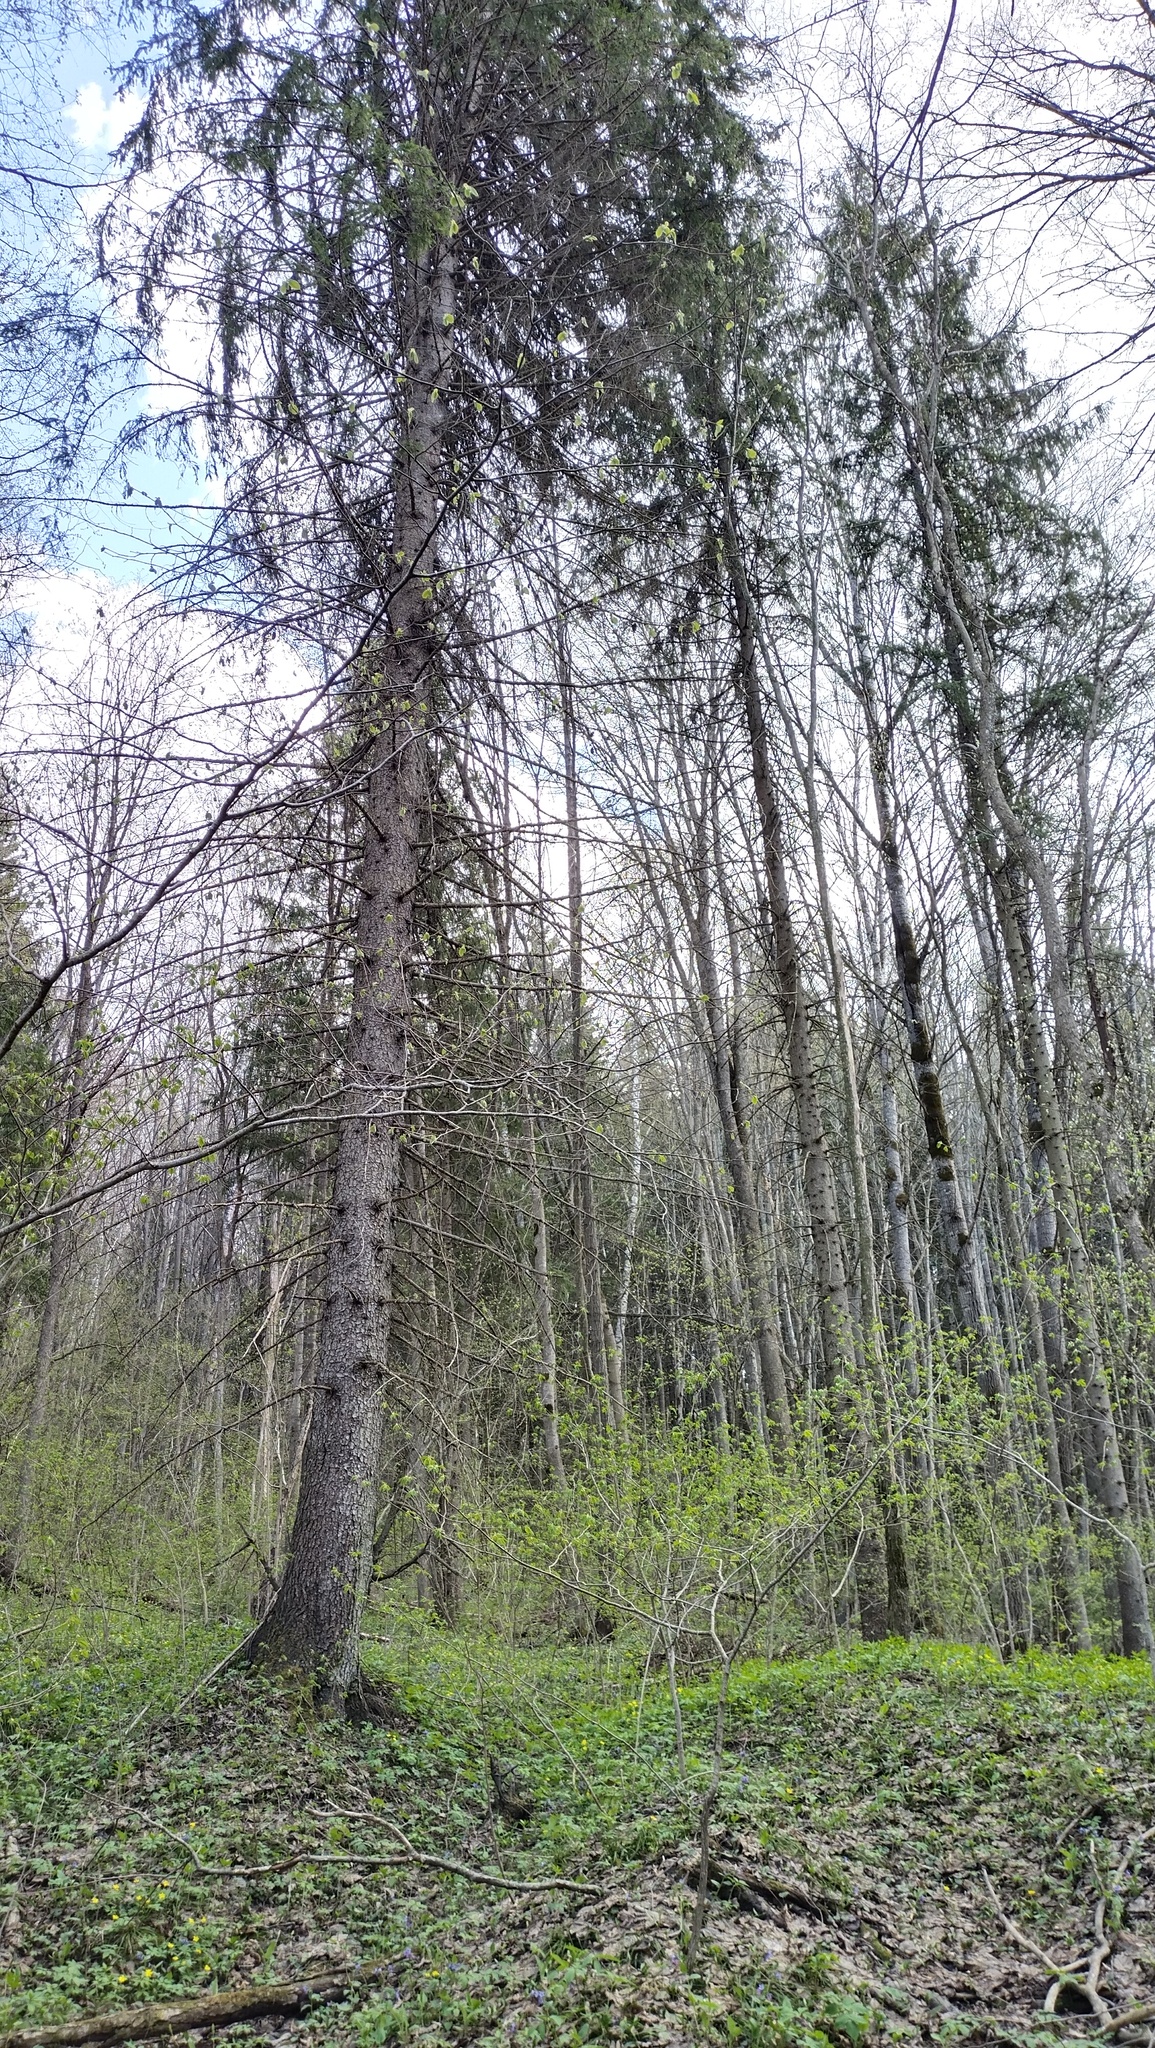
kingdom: Plantae
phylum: Tracheophyta
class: Pinopsida
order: Pinales
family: Pinaceae
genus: Picea
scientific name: Picea abies
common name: Norway spruce
